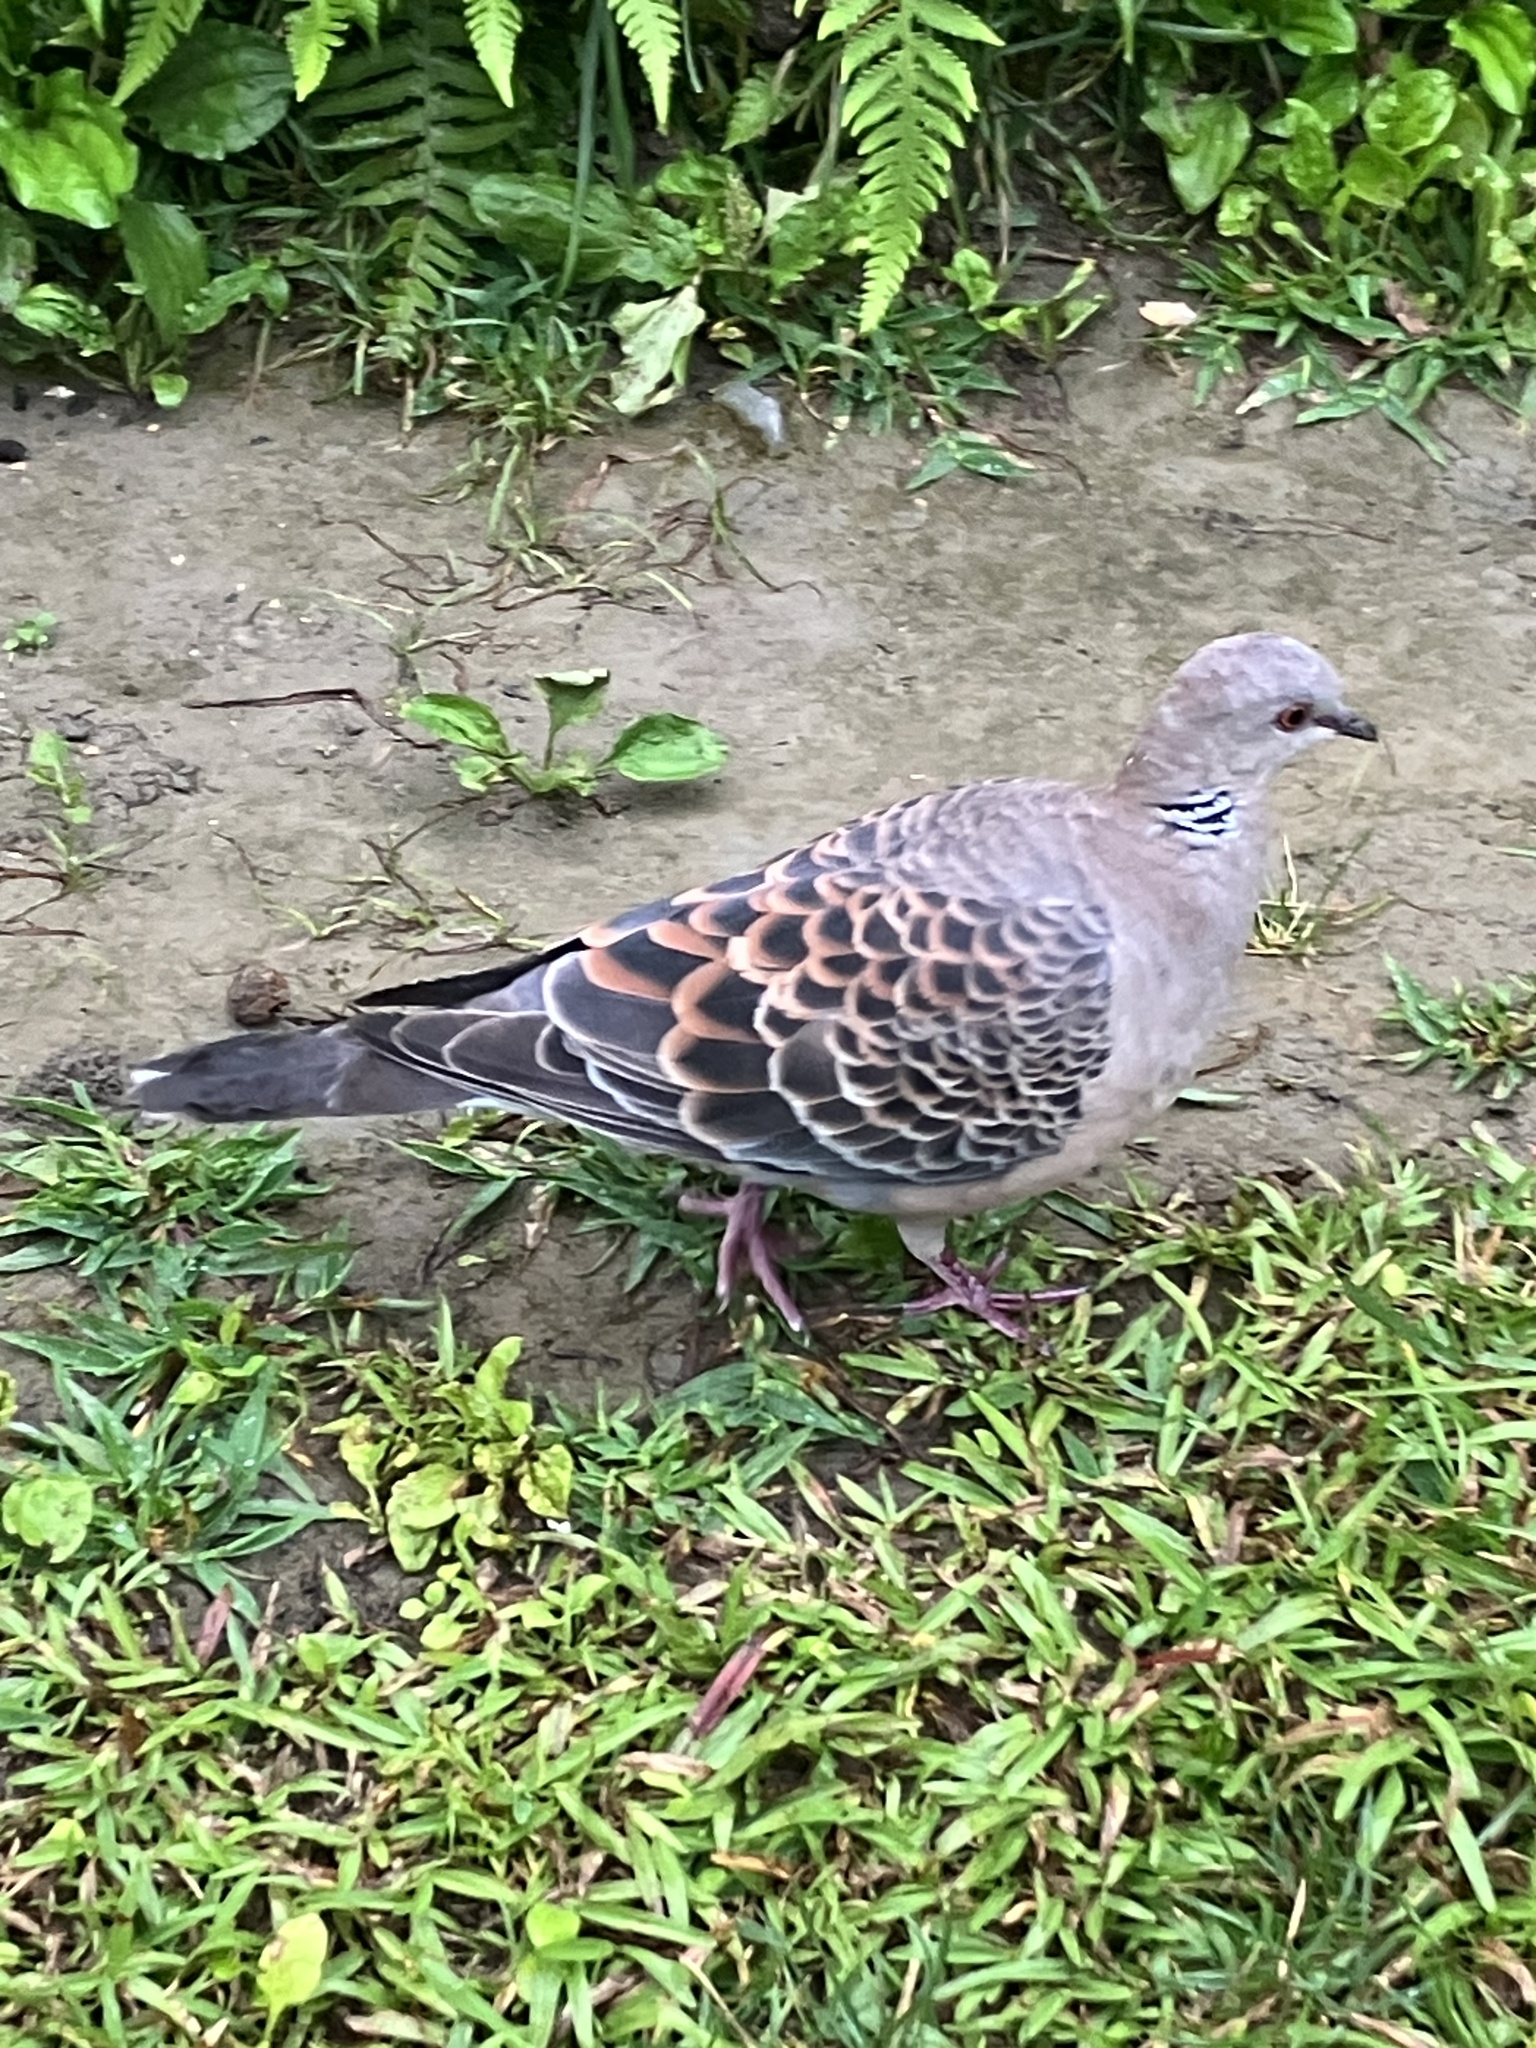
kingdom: Animalia
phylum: Chordata
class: Aves
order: Columbiformes
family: Columbidae
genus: Streptopelia
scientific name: Streptopelia orientalis
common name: Oriental turtle dove
